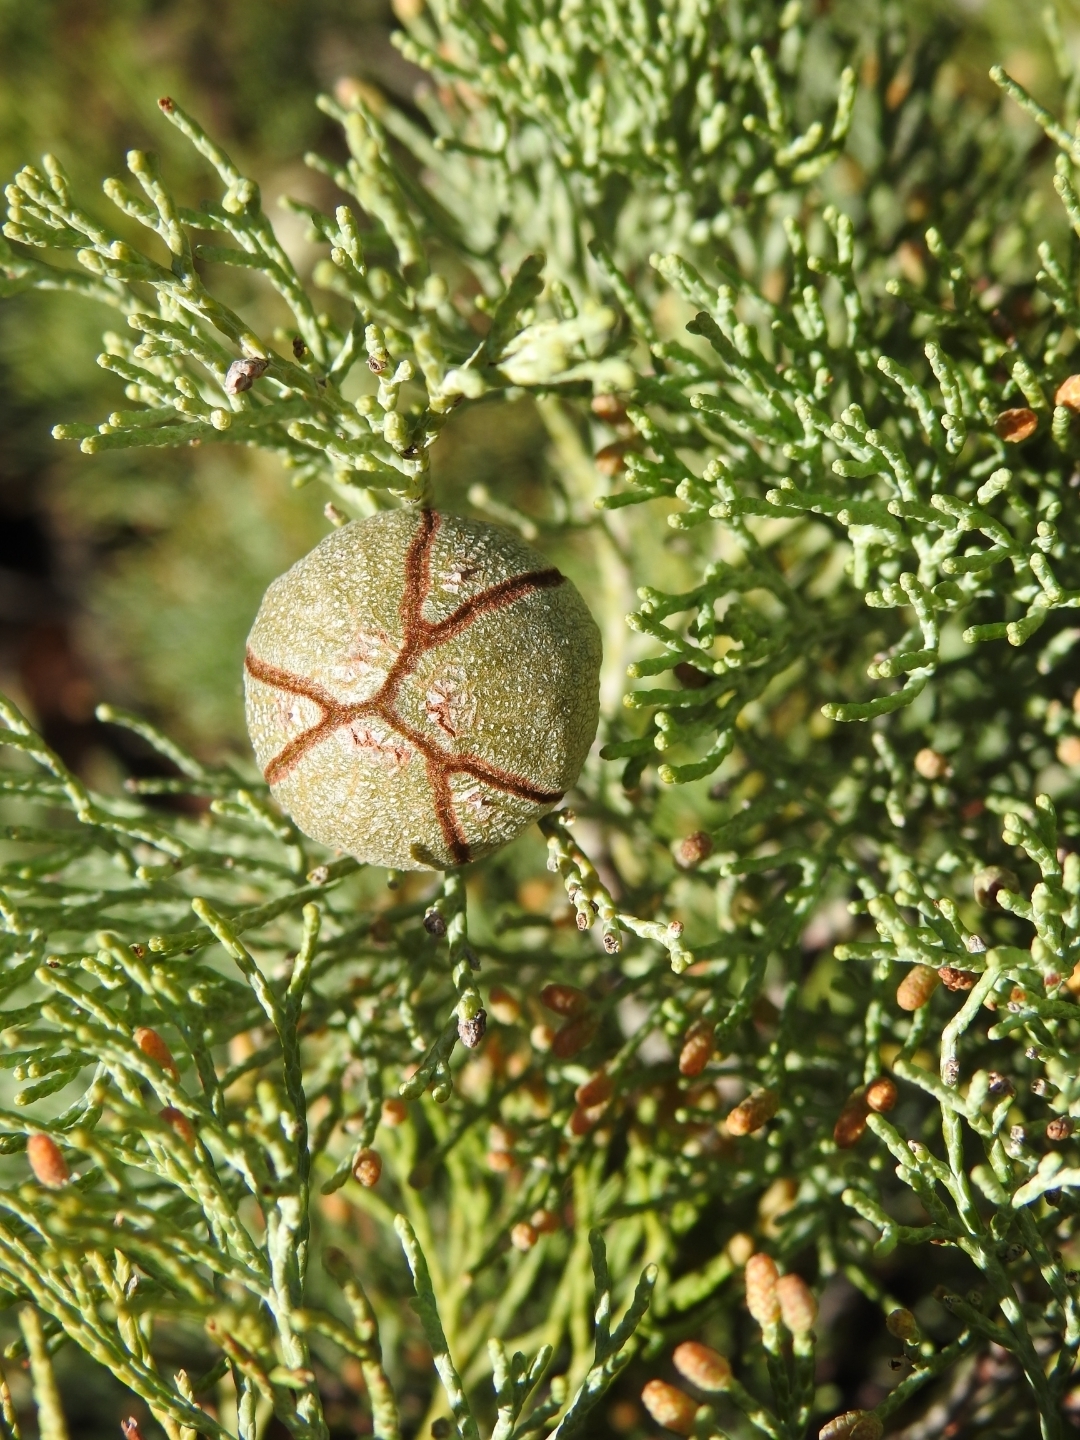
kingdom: Plantae
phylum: Tracheophyta
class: Pinopsida
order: Pinales
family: Cupressaceae
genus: Callitris
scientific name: Callitris columellaris
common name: White cypress-pine
